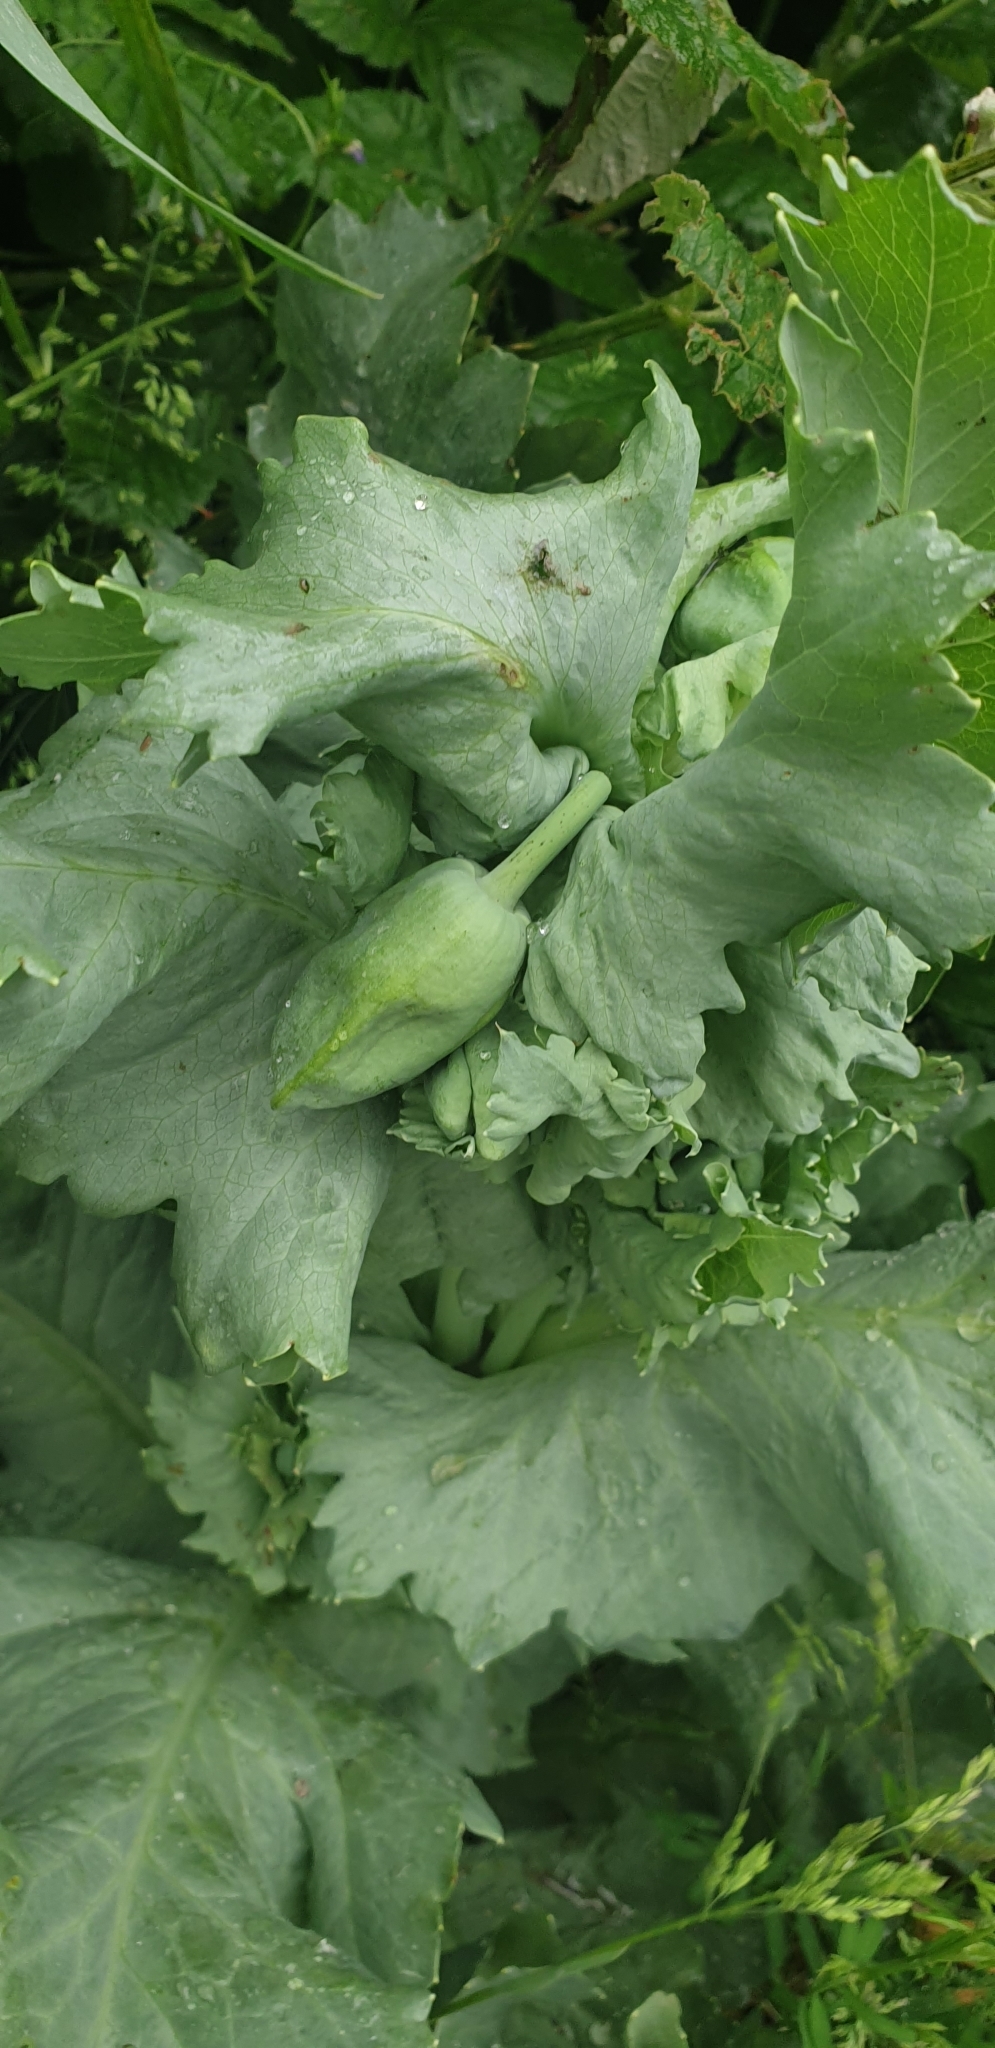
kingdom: Plantae
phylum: Tracheophyta
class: Magnoliopsida
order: Ranunculales
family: Papaveraceae
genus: Papaver
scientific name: Papaver somniferum
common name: Opium poppy
